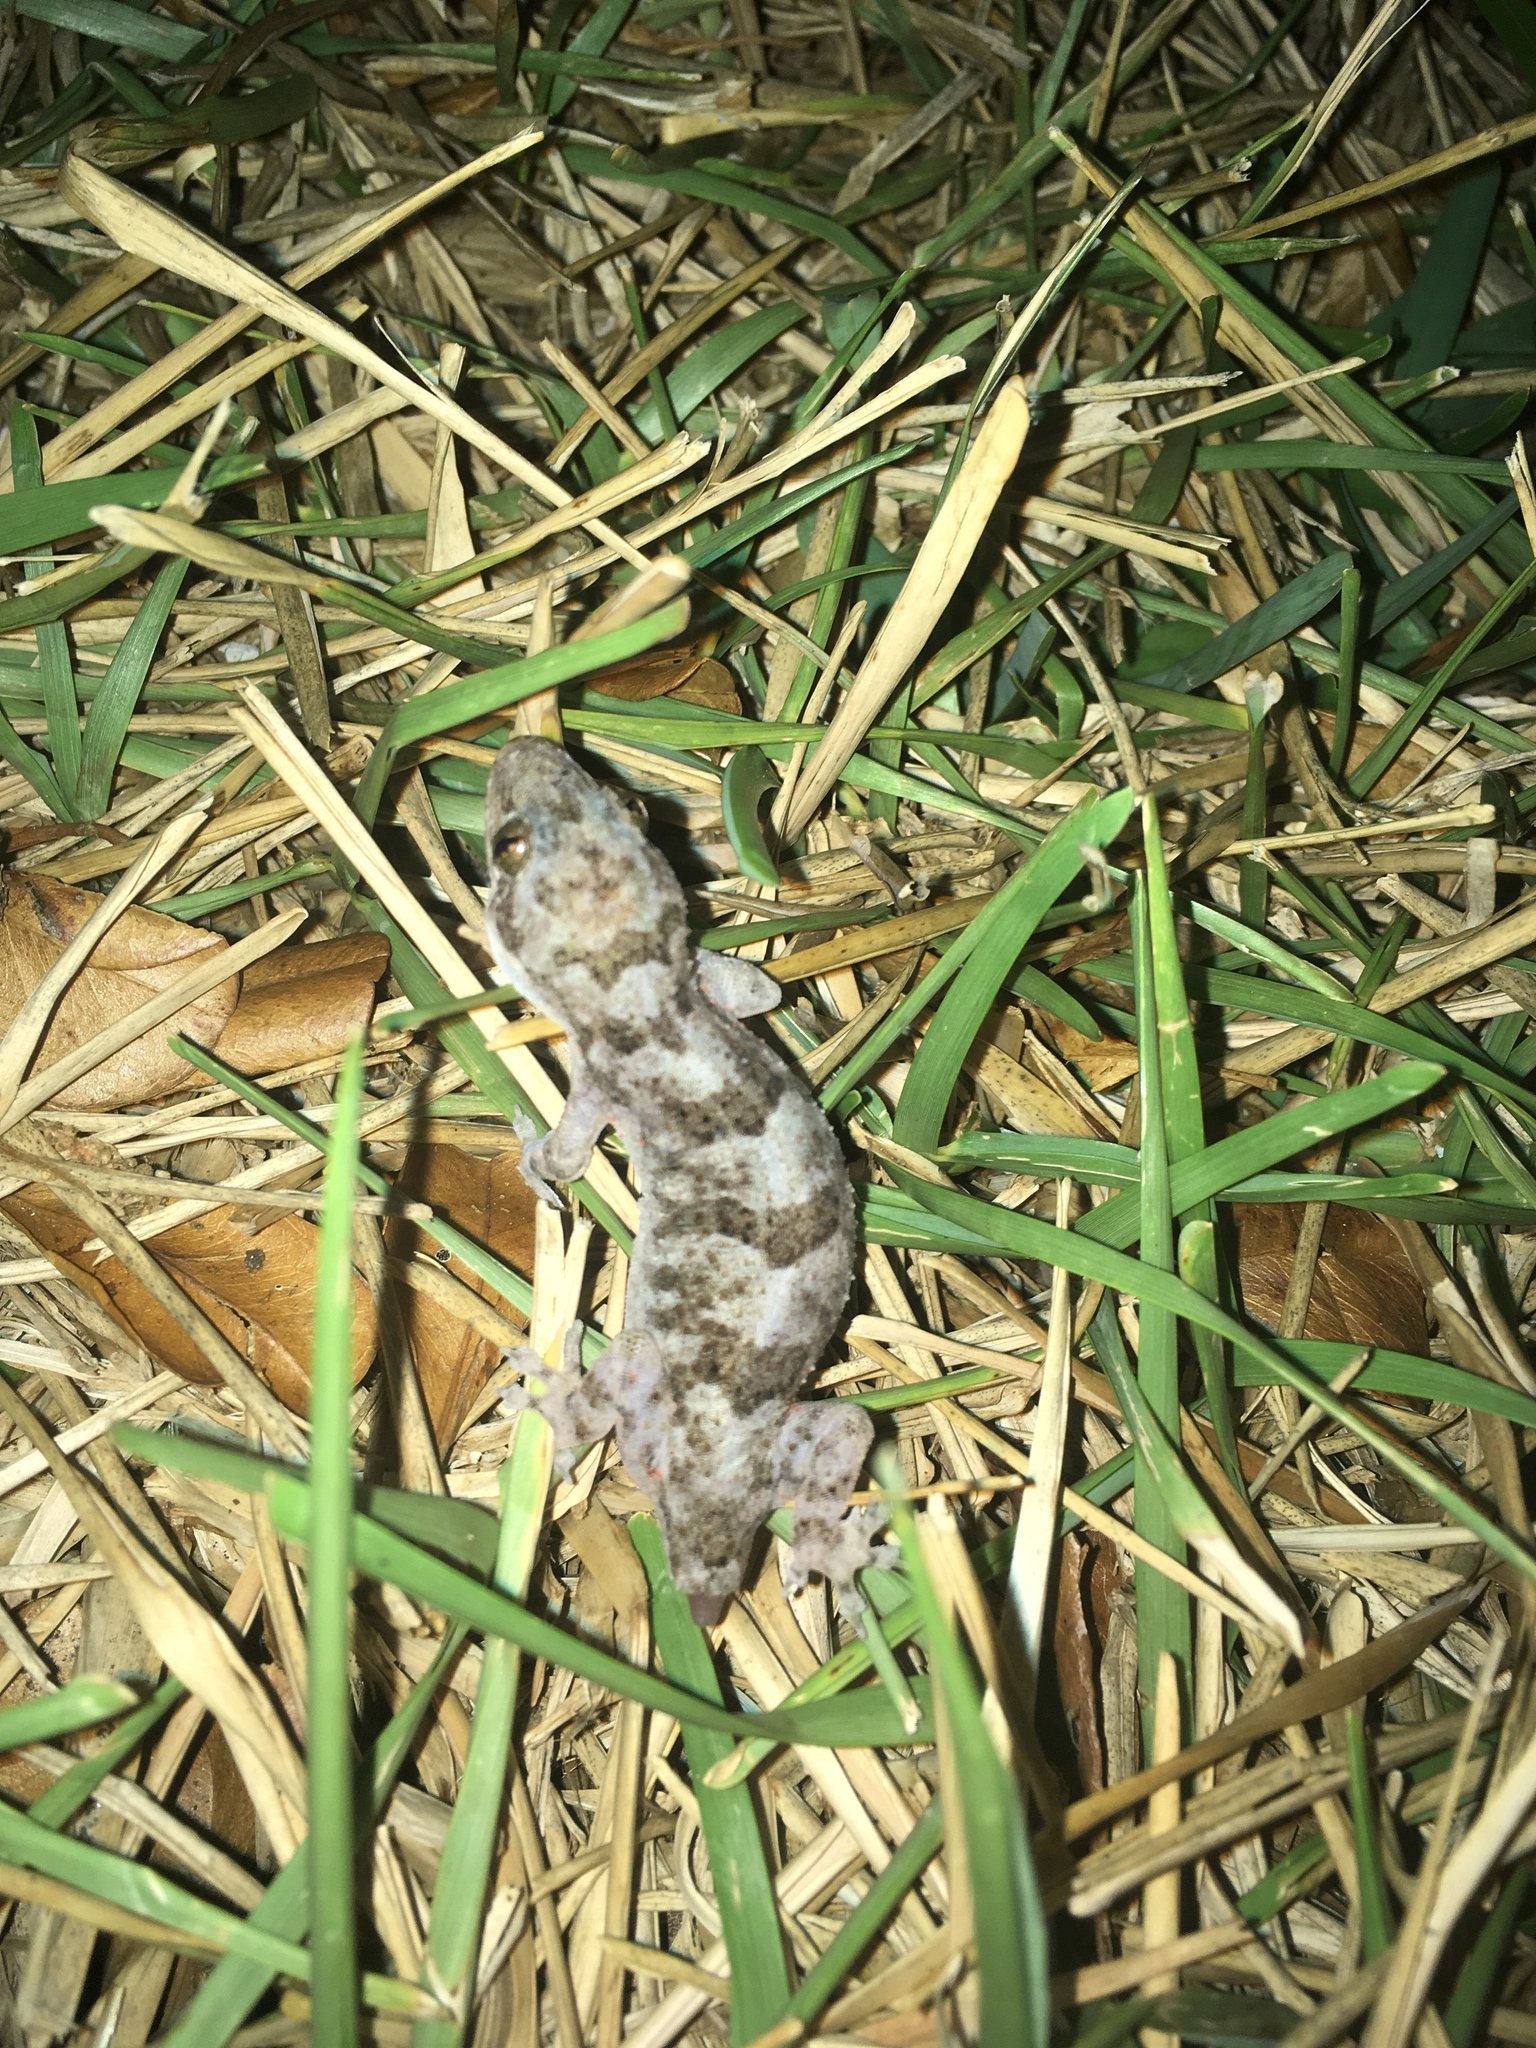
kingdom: Animalia
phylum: Chordata
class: Squamata
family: Gekkonidae
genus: Hemidactylus
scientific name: Hemidactylus mabouia
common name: House gecko
